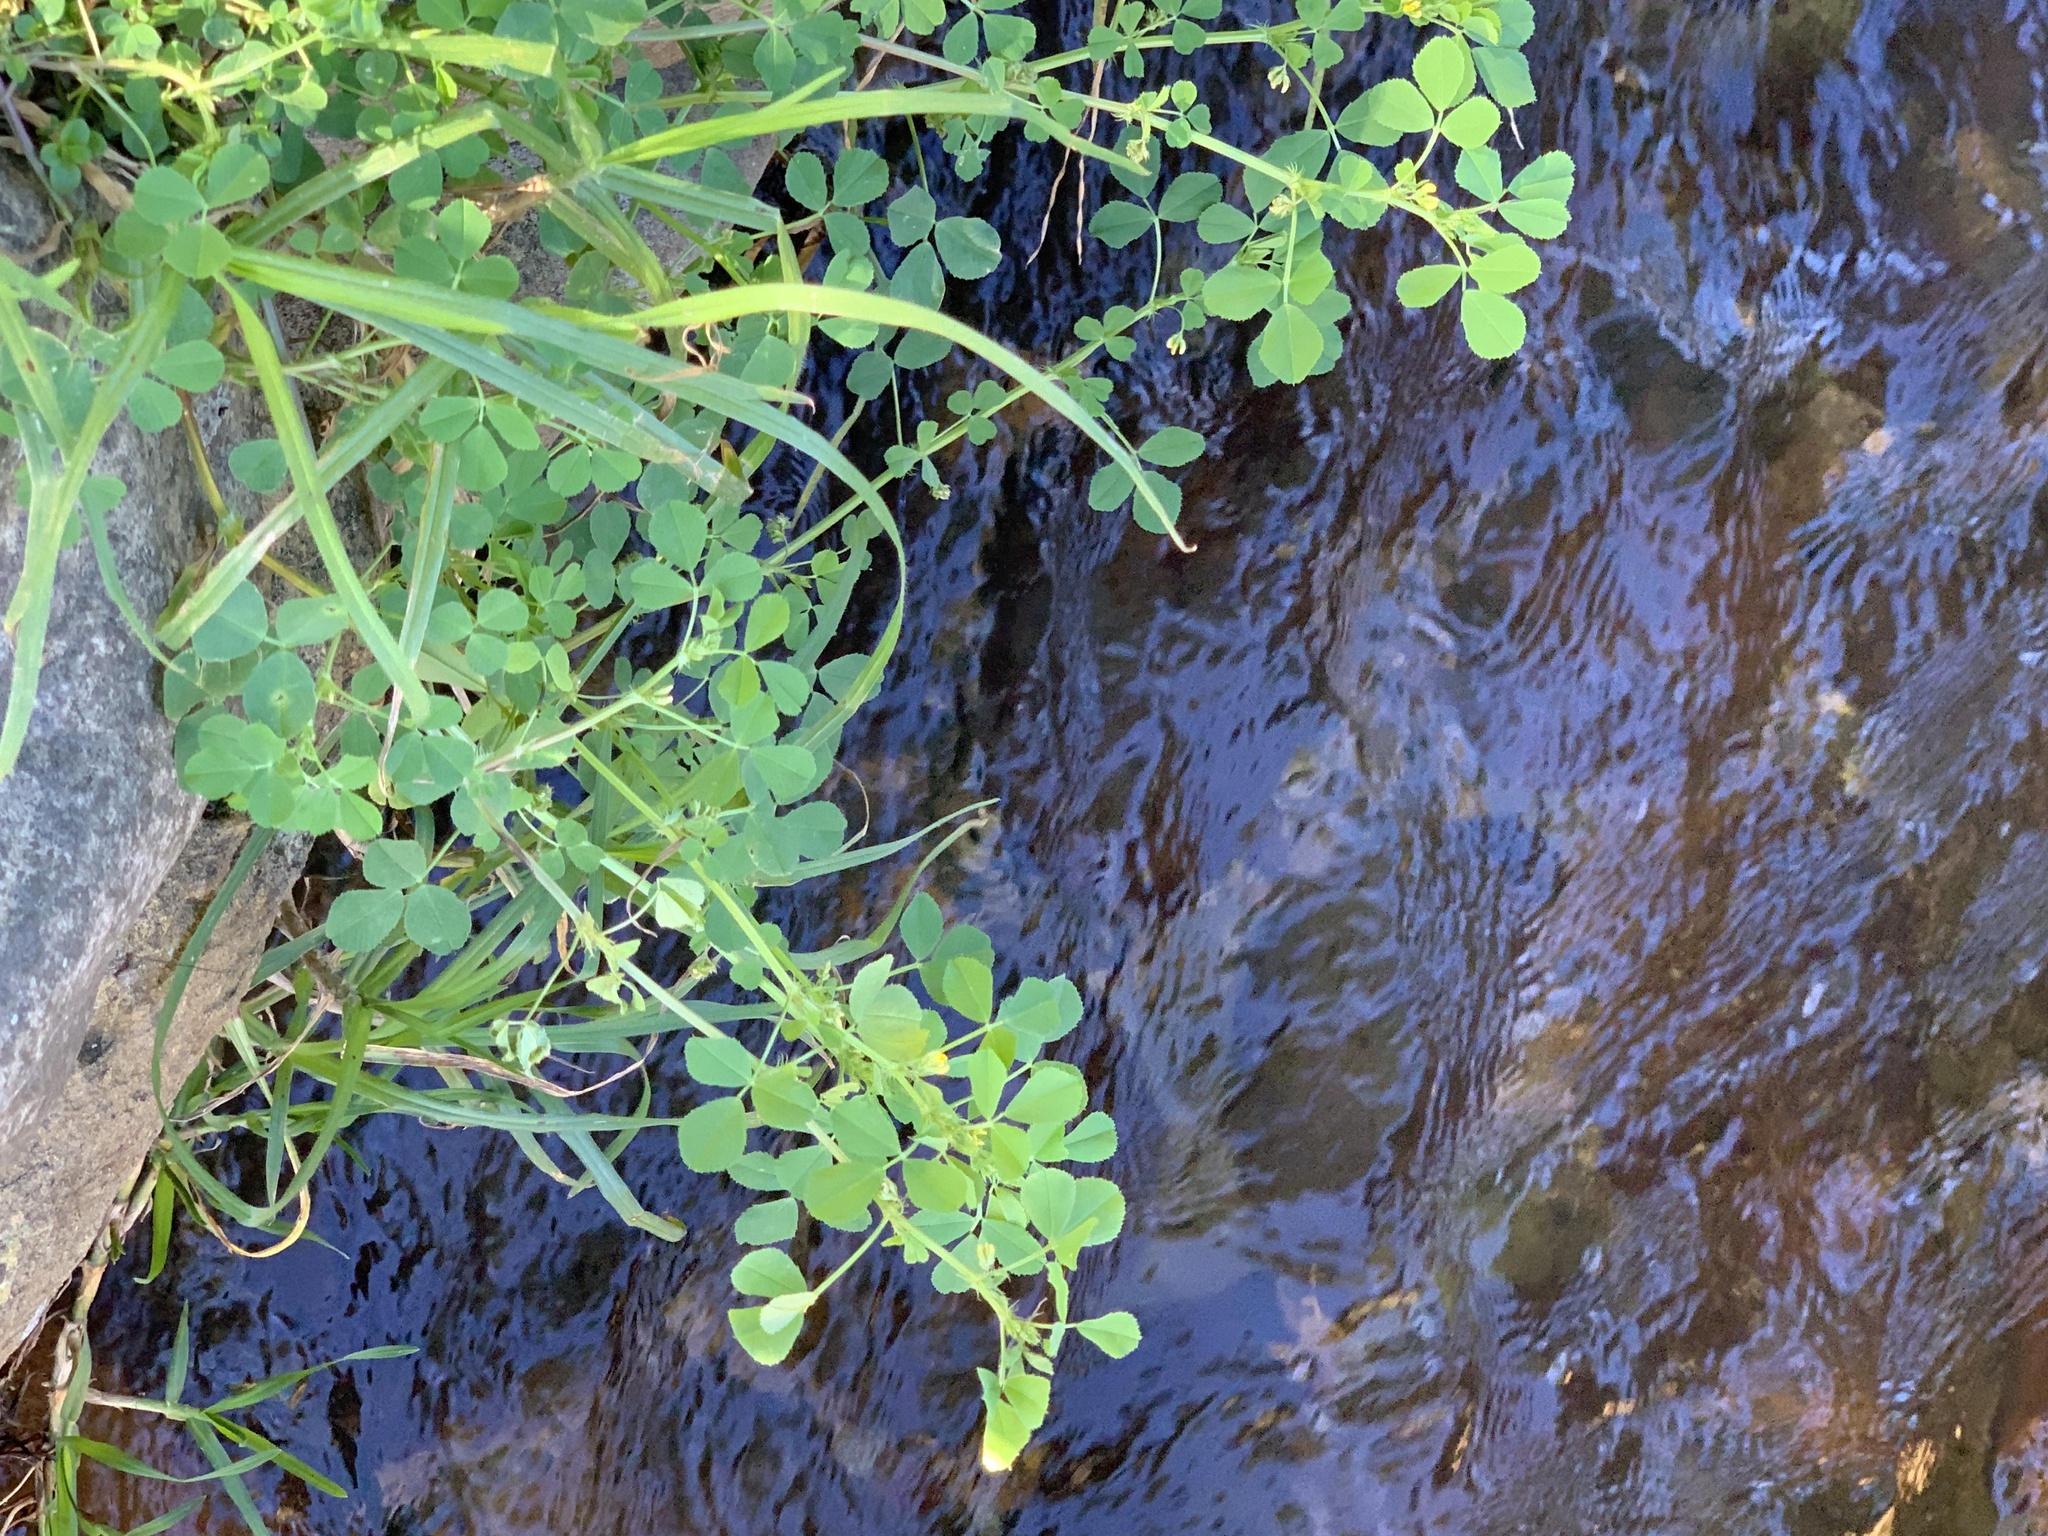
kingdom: Plantae
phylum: Tracheophyta
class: Magnoliopsida
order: Fabales
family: Fabaceae
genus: Medicago
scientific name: Medicago polymorpha
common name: Burclover
